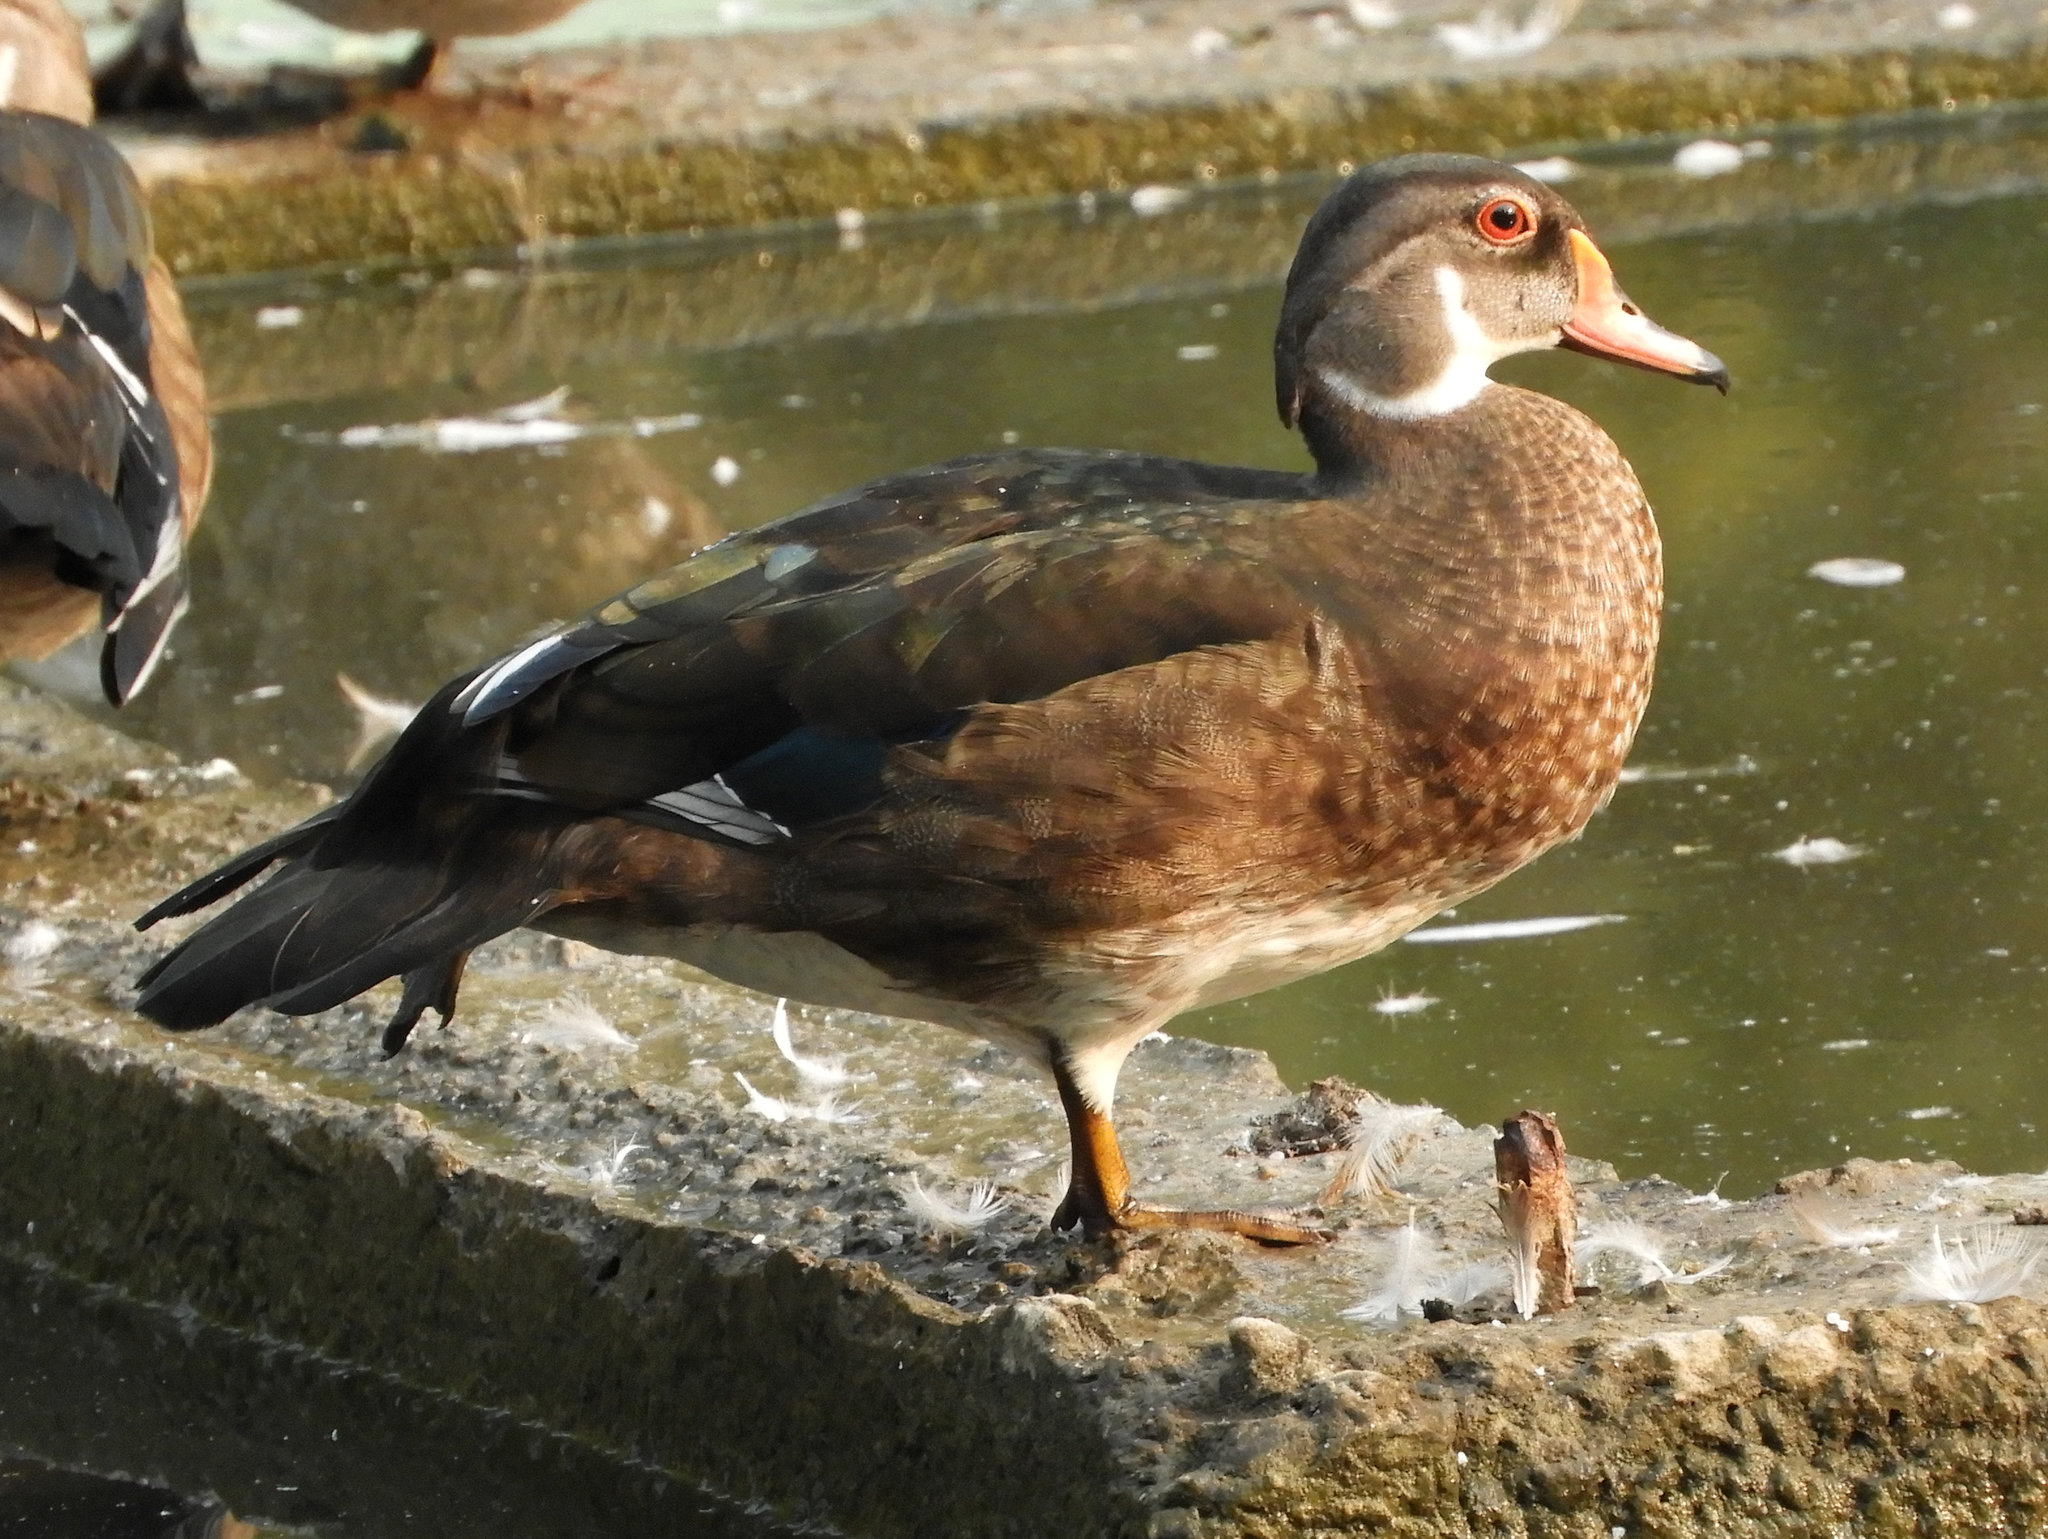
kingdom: Animalia
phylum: Chordata
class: Aves
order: Anseriformes
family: Anatidae
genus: Aix
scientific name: Aix sponsa
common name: Wood duck
